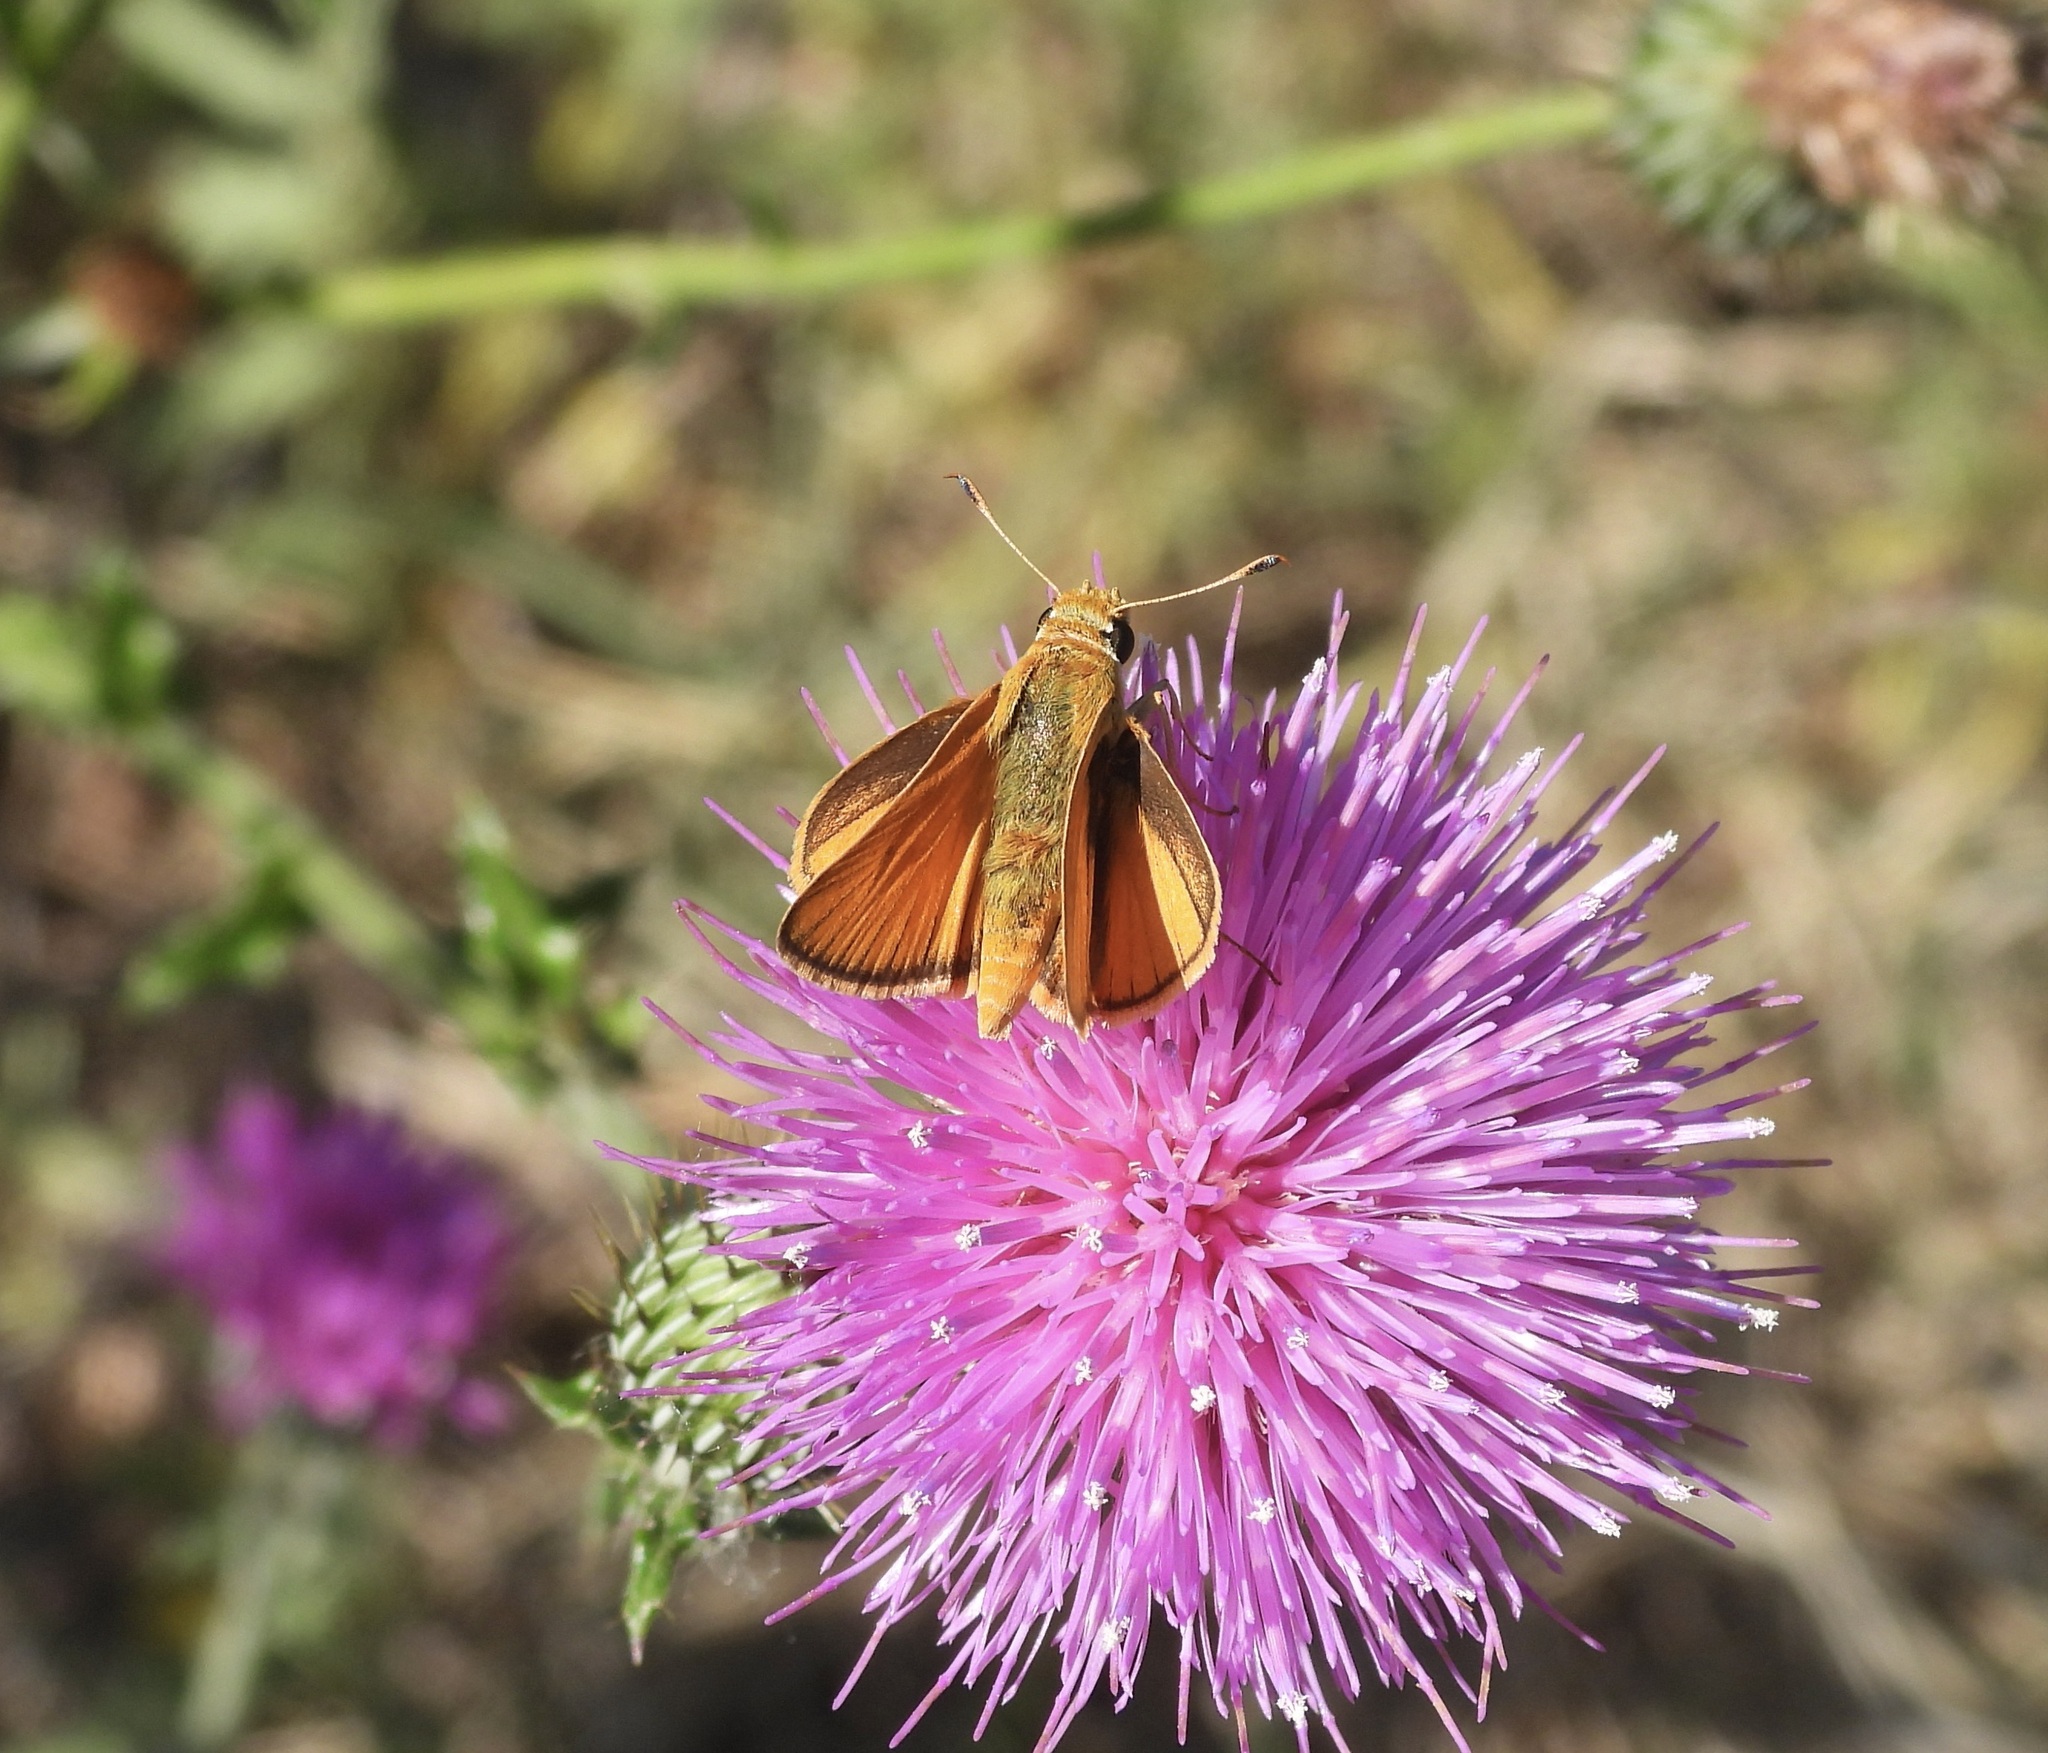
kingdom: Animalia
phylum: Arthropoda
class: Insecta
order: Lepidoptera
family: Hesperiidae
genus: Atrytone
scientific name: Atrytone delaware
